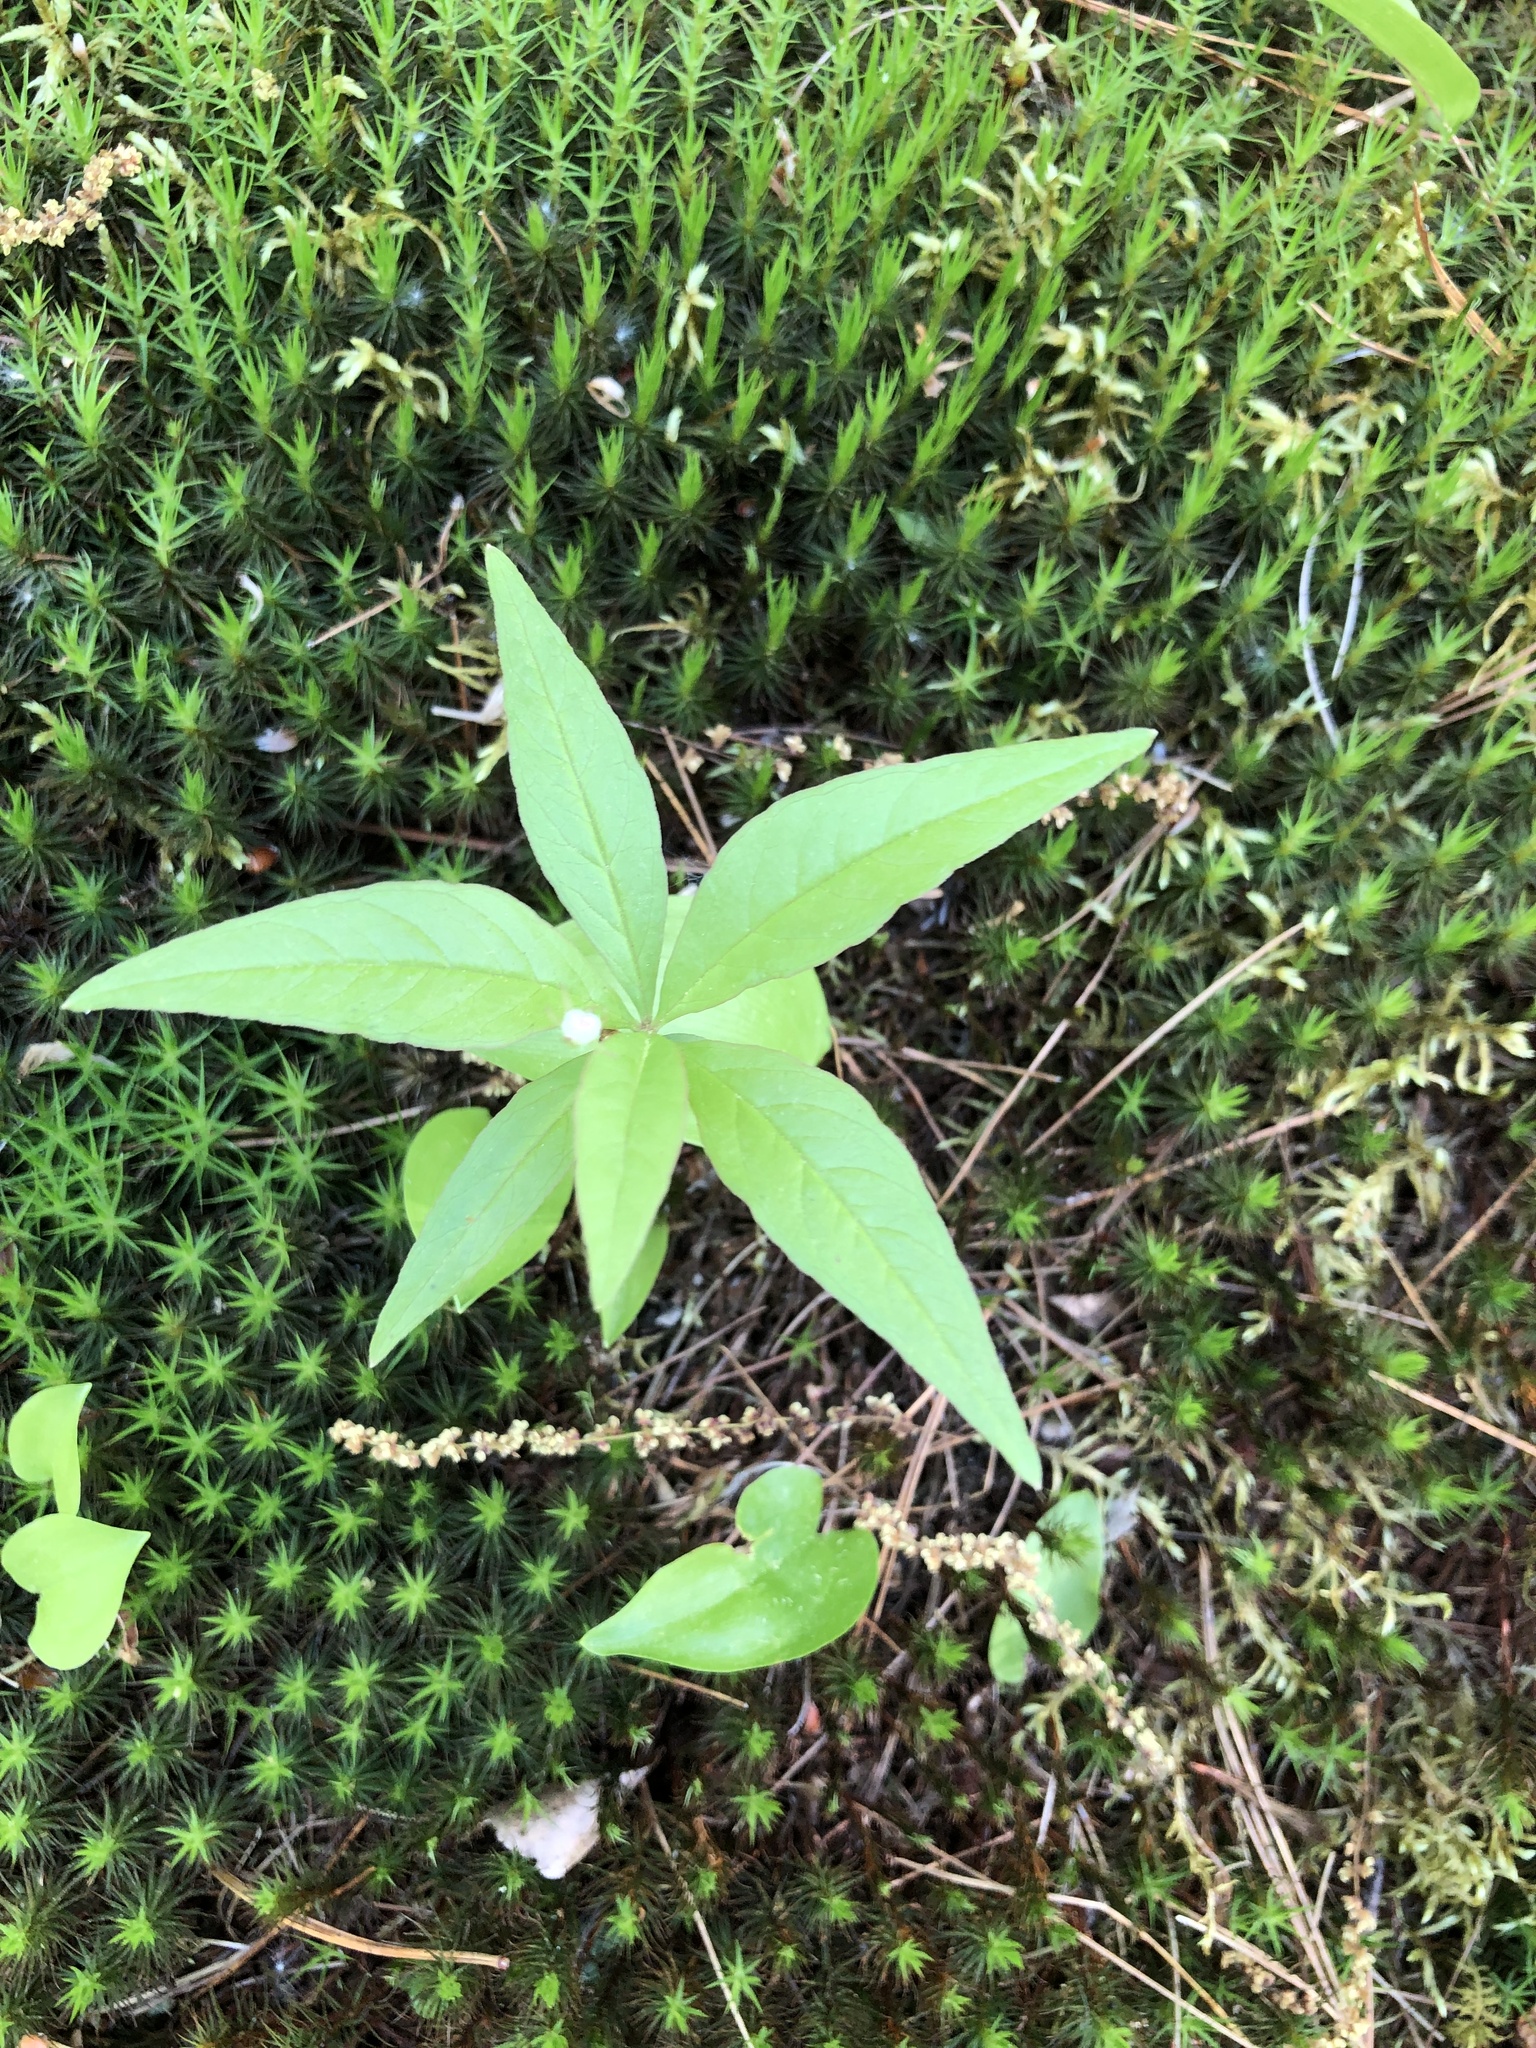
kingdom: Plantae
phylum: Tracheophyta
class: Magnoliopsida
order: Ericales
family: Primulaceae
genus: Lysimachia
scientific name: Lysimachia borealis
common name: American starflower
